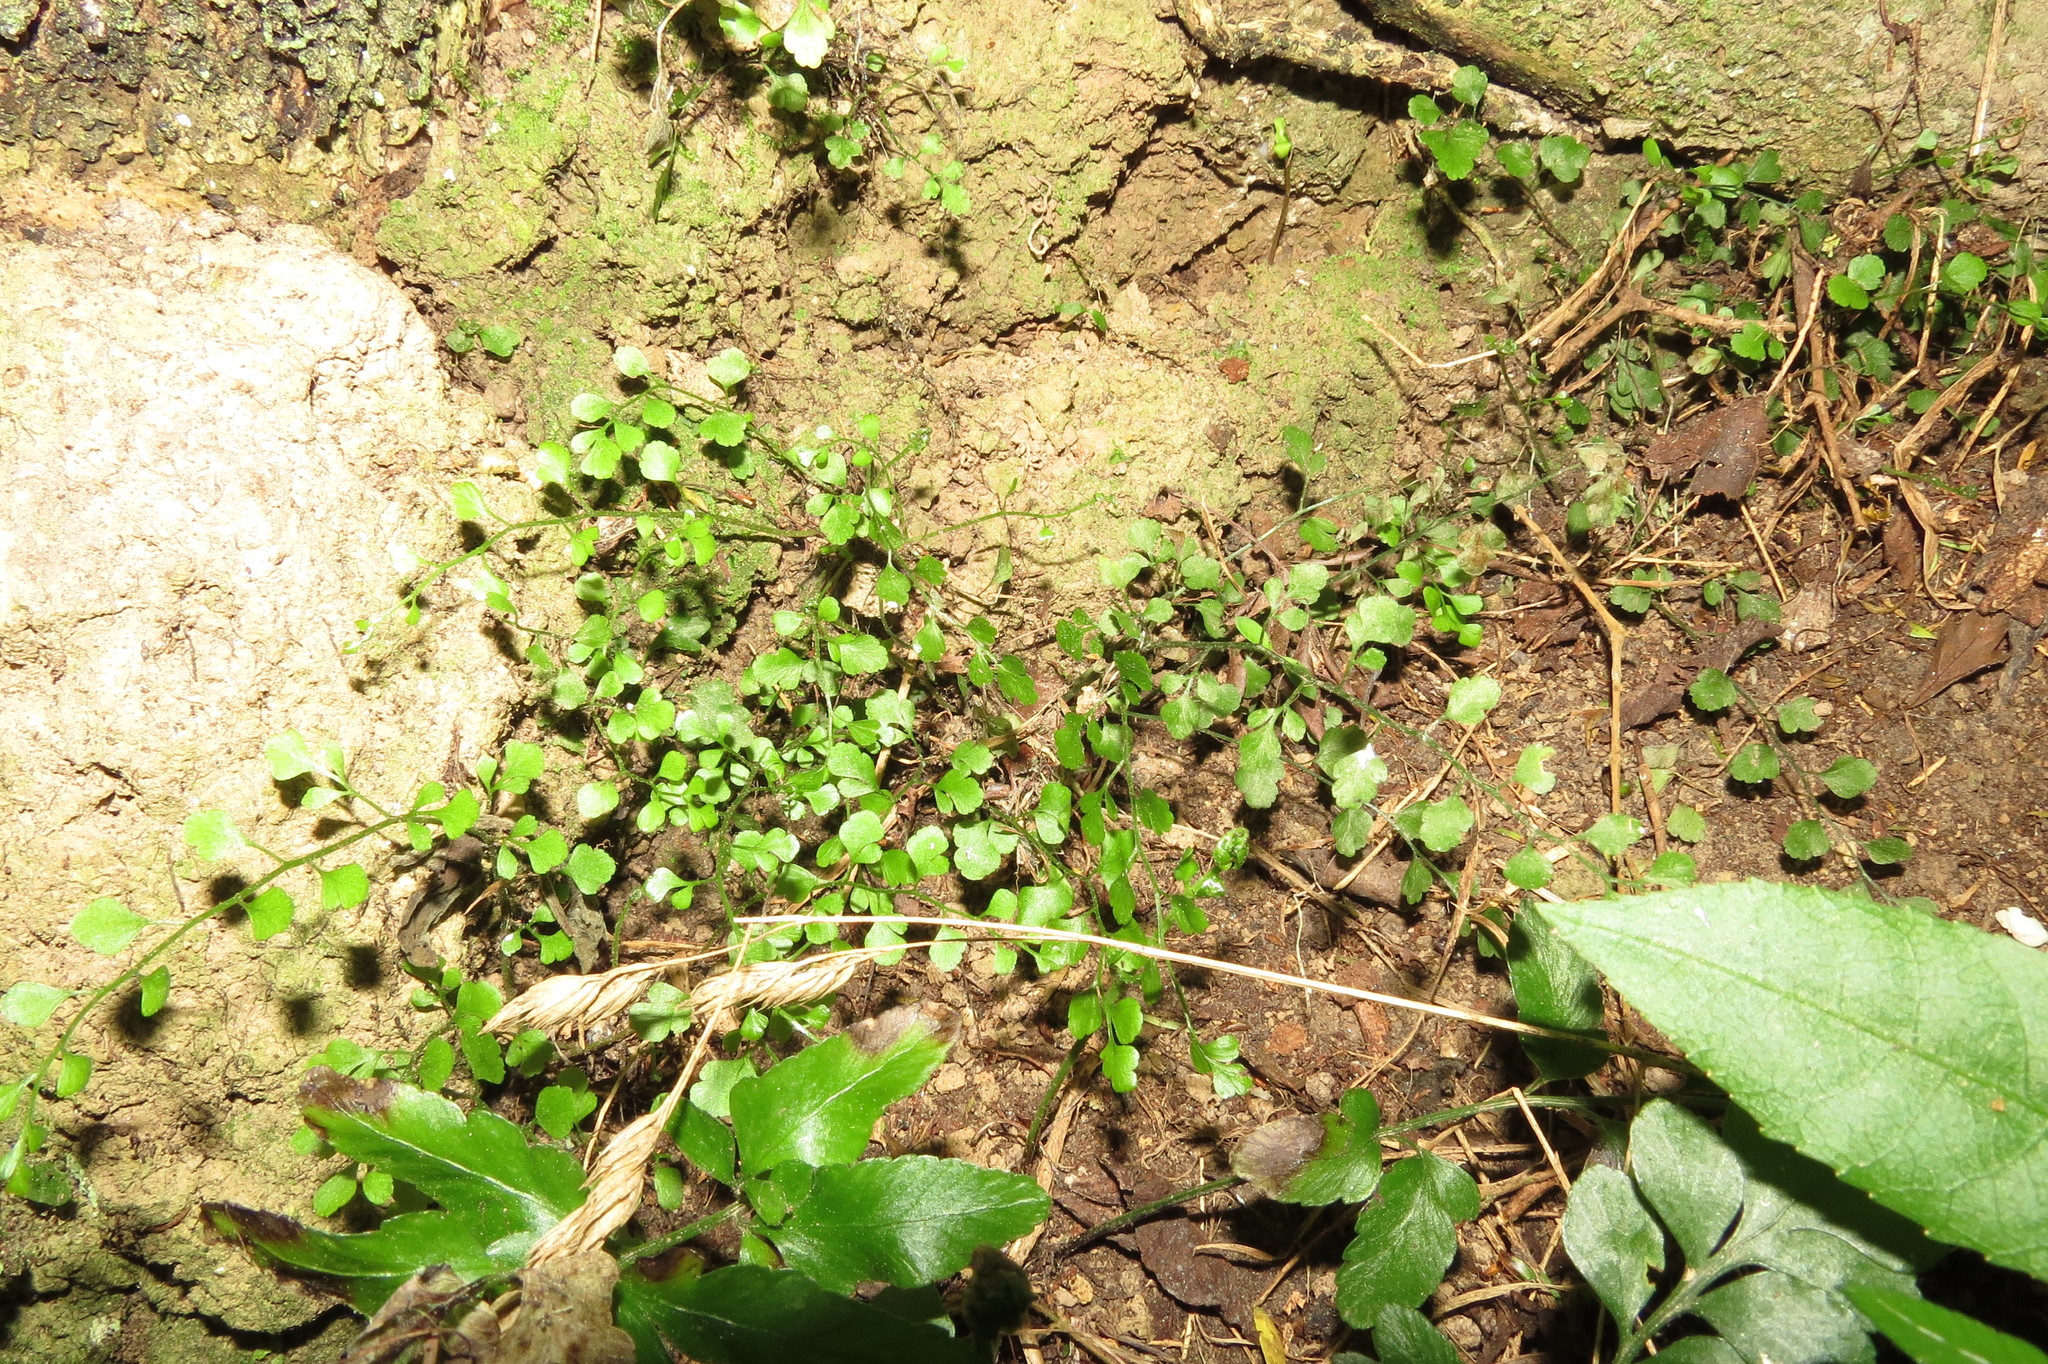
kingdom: Plantae
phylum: Tracheophyta
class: Polypodiopsida
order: Polypodiales
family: Aspleniaceae
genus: Asplenium
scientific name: Asplenium hookerianum
